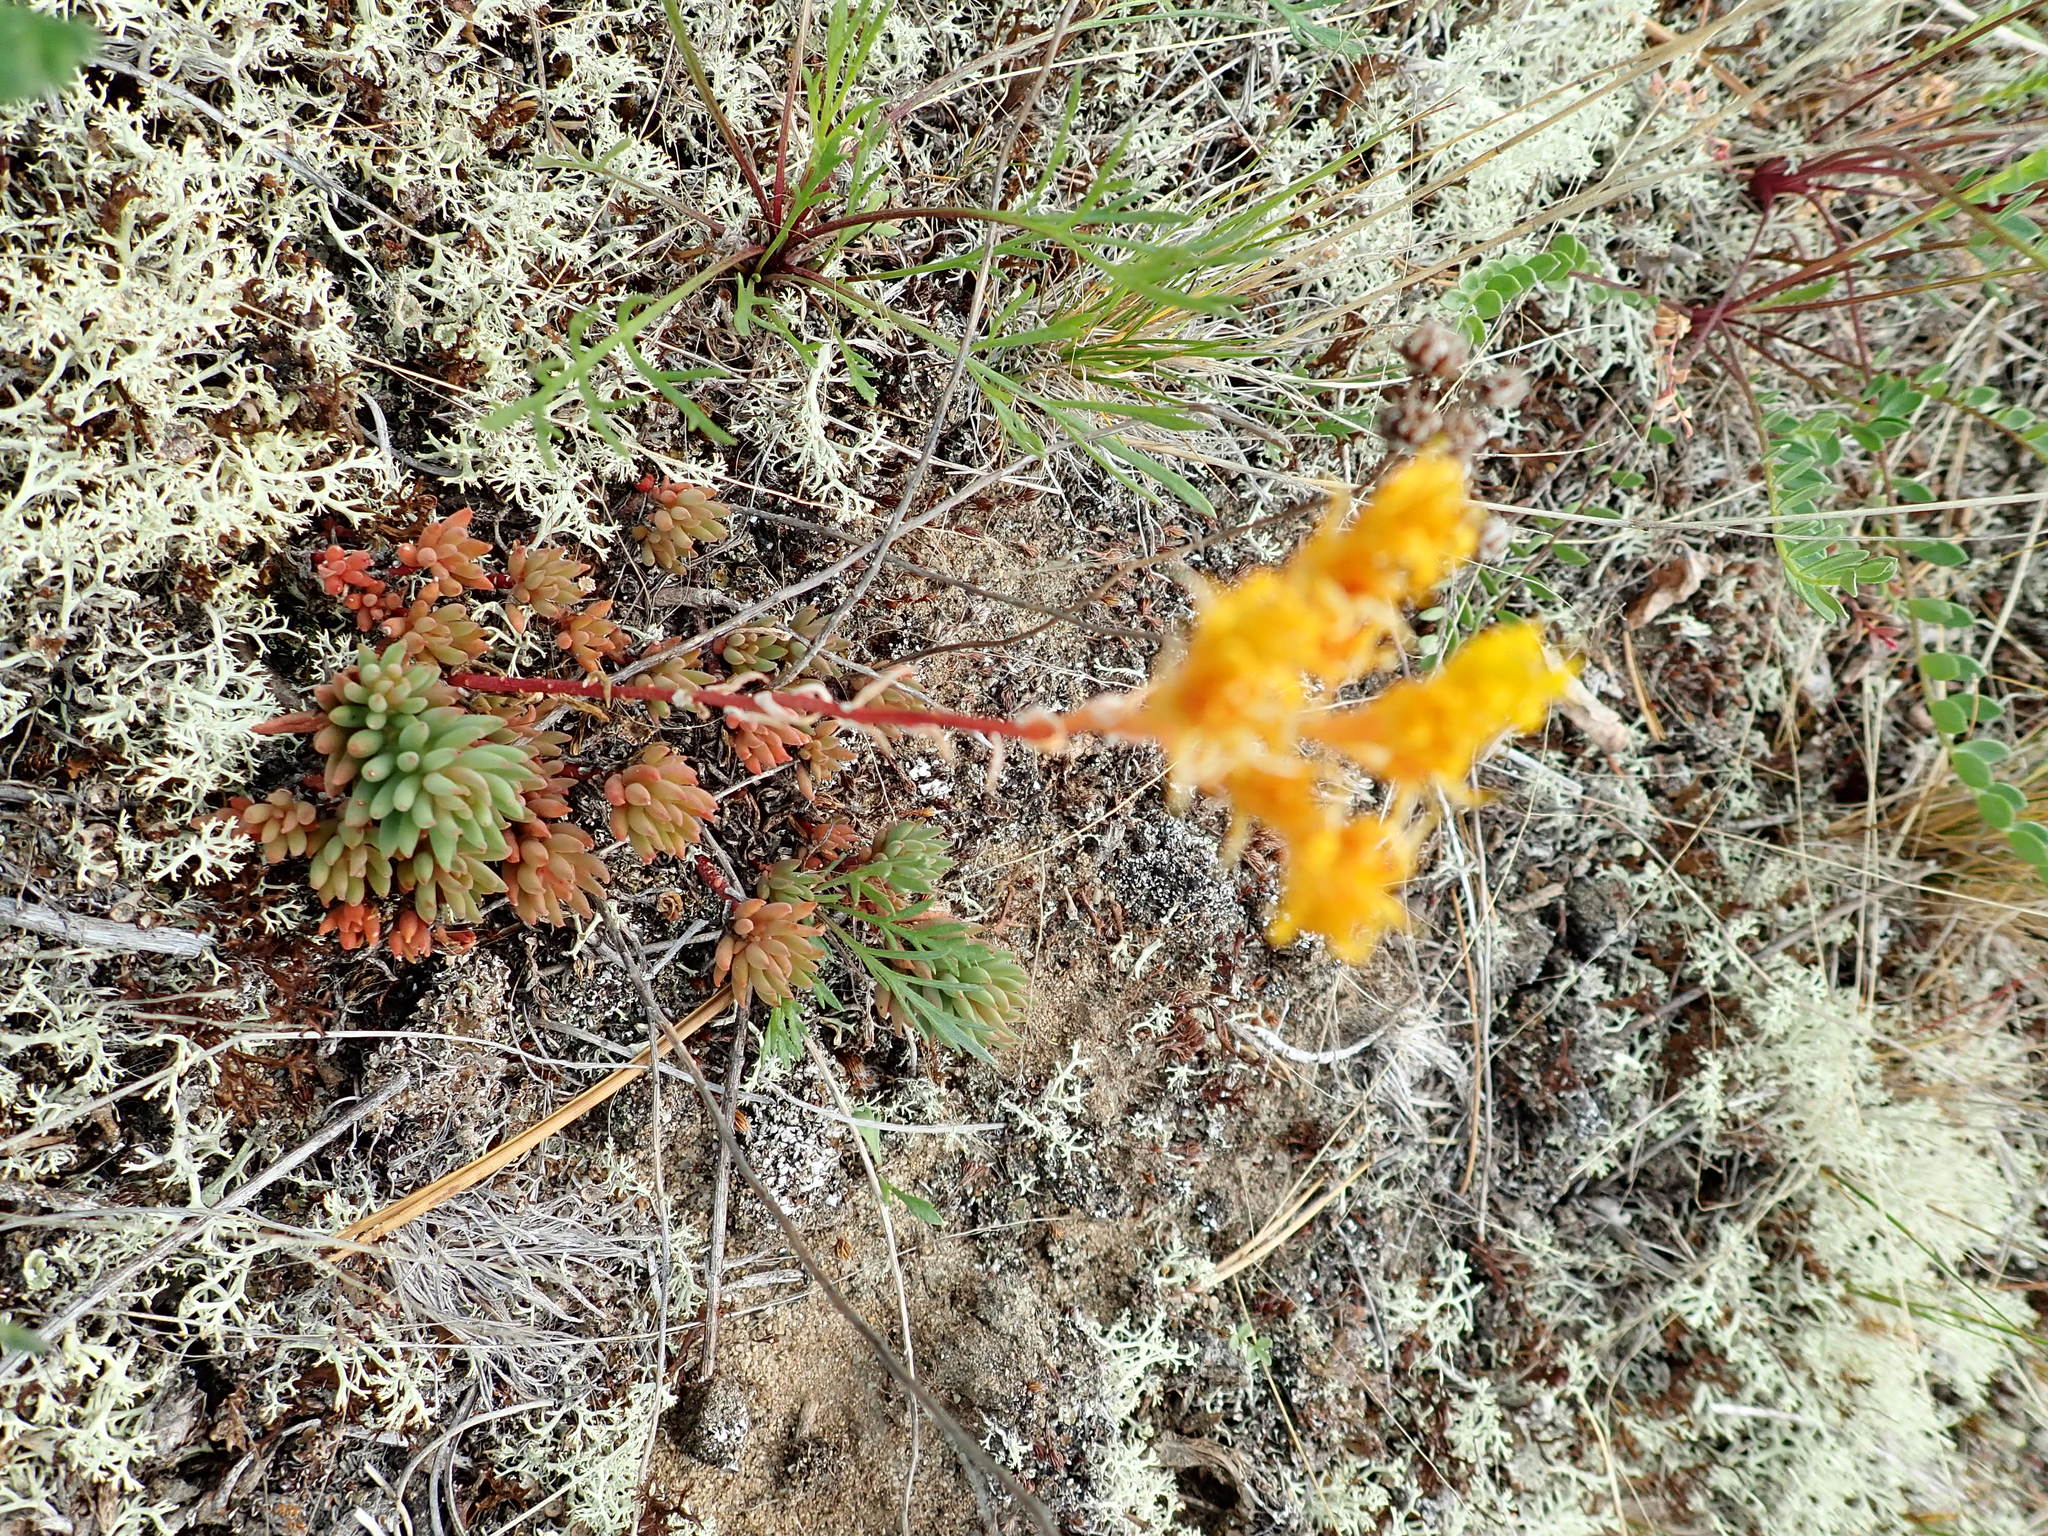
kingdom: Plantae
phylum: Tracheophyta
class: Magnoliopsida
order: Saxifragales
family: Crassulaceae
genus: Sedum
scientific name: Sedum lanceolatum
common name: Common stonecrop
